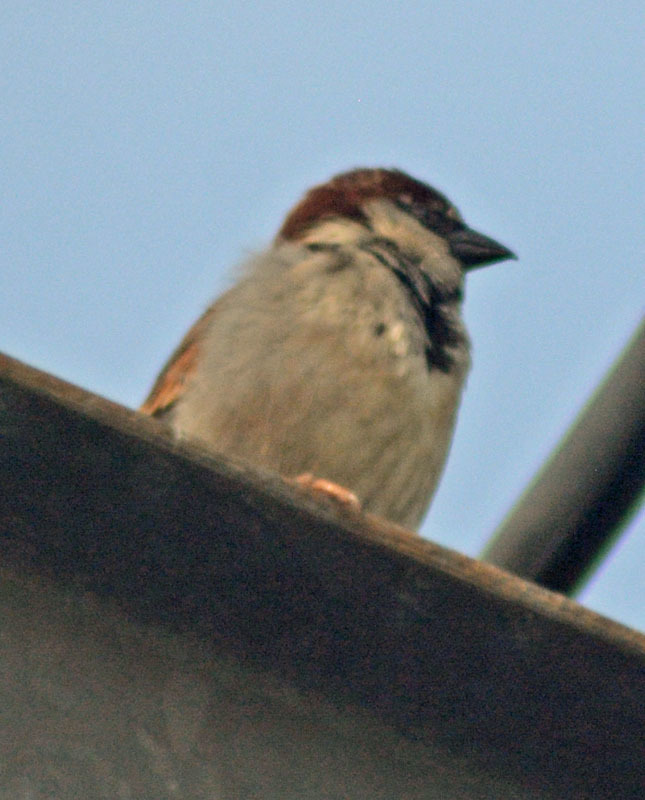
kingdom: Animalia
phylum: Chordata
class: Aves
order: Passeriformes
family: Passeridae
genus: Passer
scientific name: Passer domesticus
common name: House sparrow
